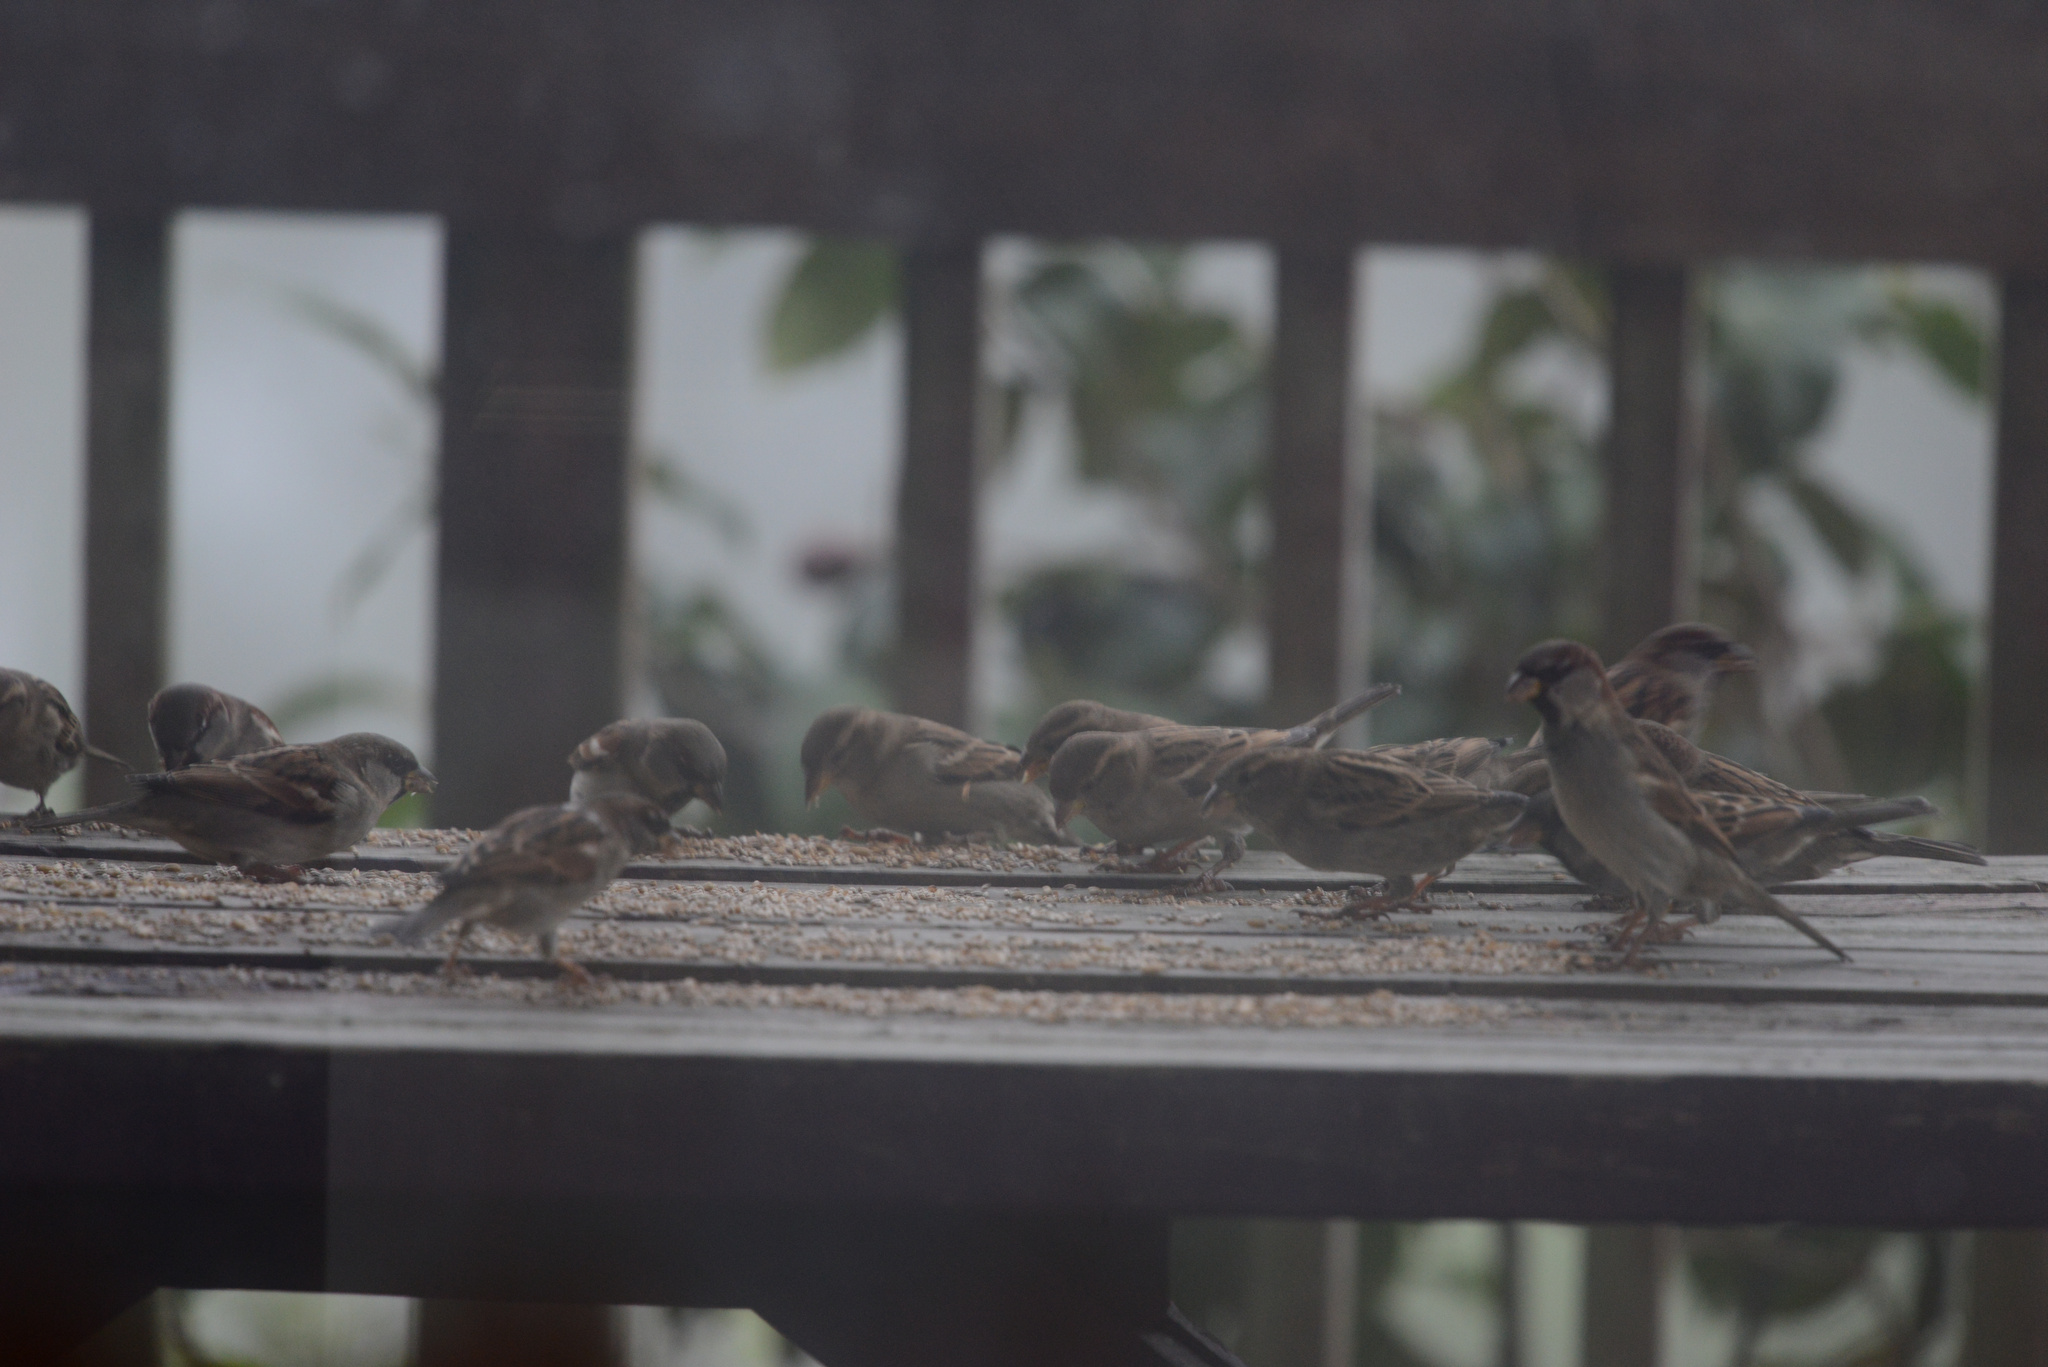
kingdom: Animalia
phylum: Chordata
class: Aves
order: Passeriformes
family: Passeridae
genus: Passer
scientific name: Passer domesticus
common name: House sparrow
